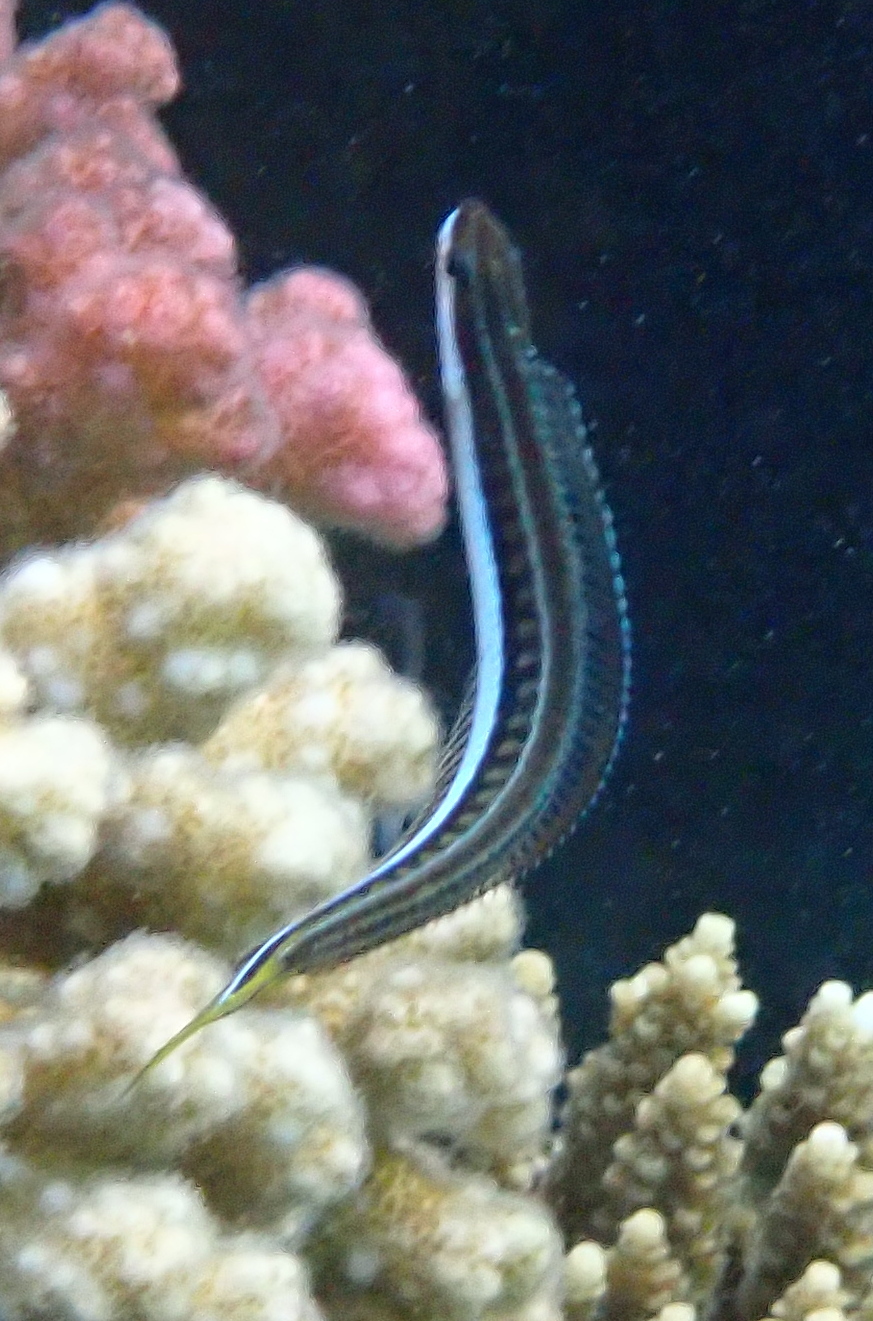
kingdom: Animalia
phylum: Chordata
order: Perciformes
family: Blenniidae
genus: Plagiotremus
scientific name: Plagiotremus tapeinosoma
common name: Hit and run blenny
